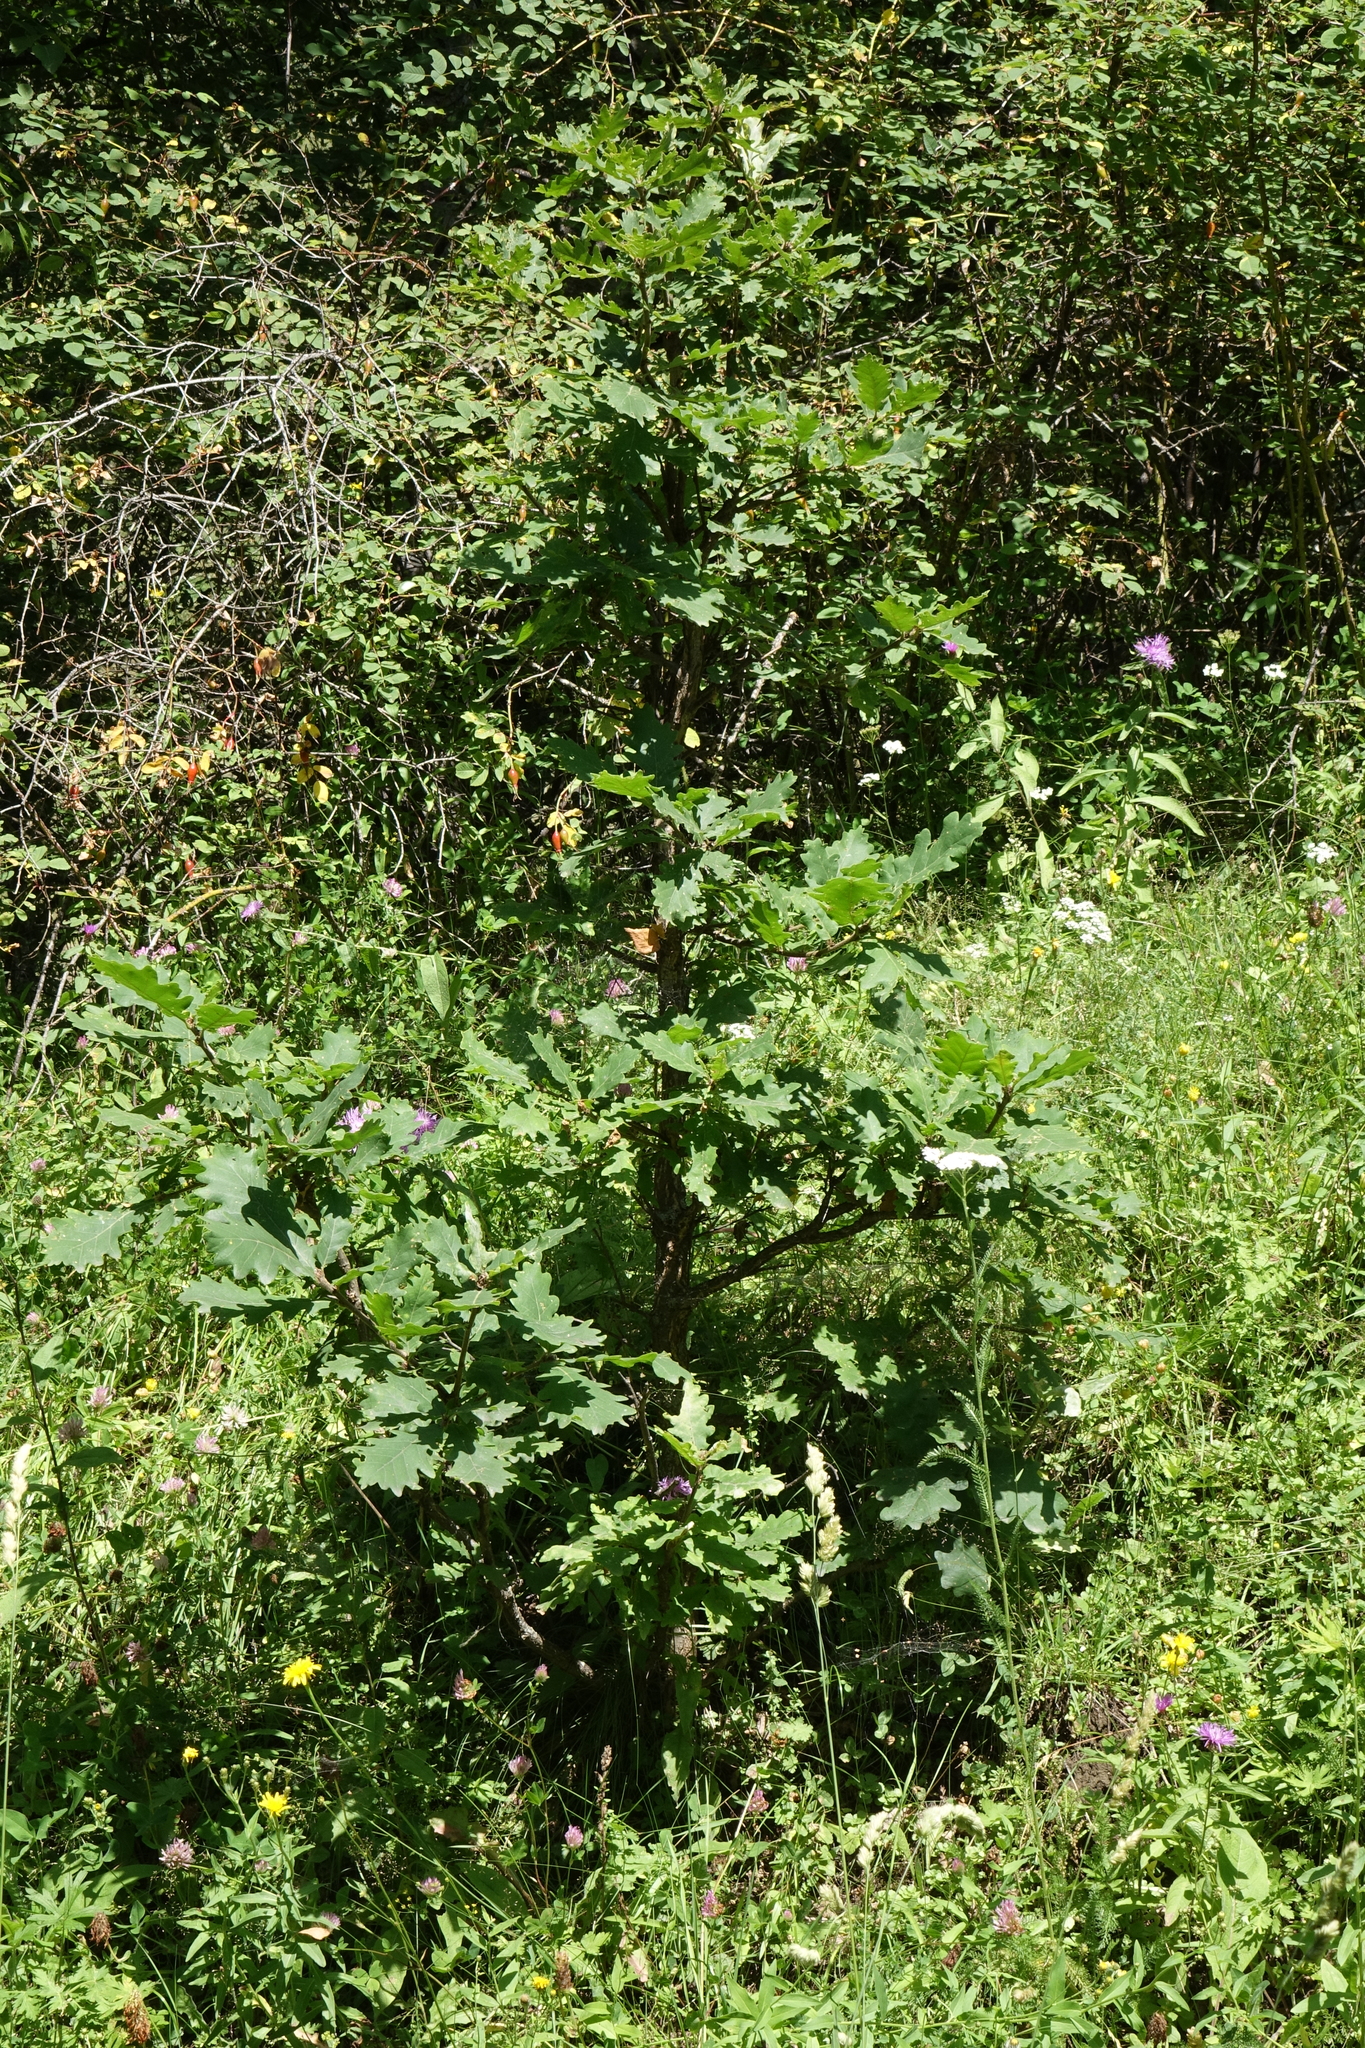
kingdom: Plantae
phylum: Tracheophyta
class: Magnoliopsida
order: Fagales
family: Fagaceae
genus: Quercus
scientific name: Quercus macranthera
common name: Caucasian oak
